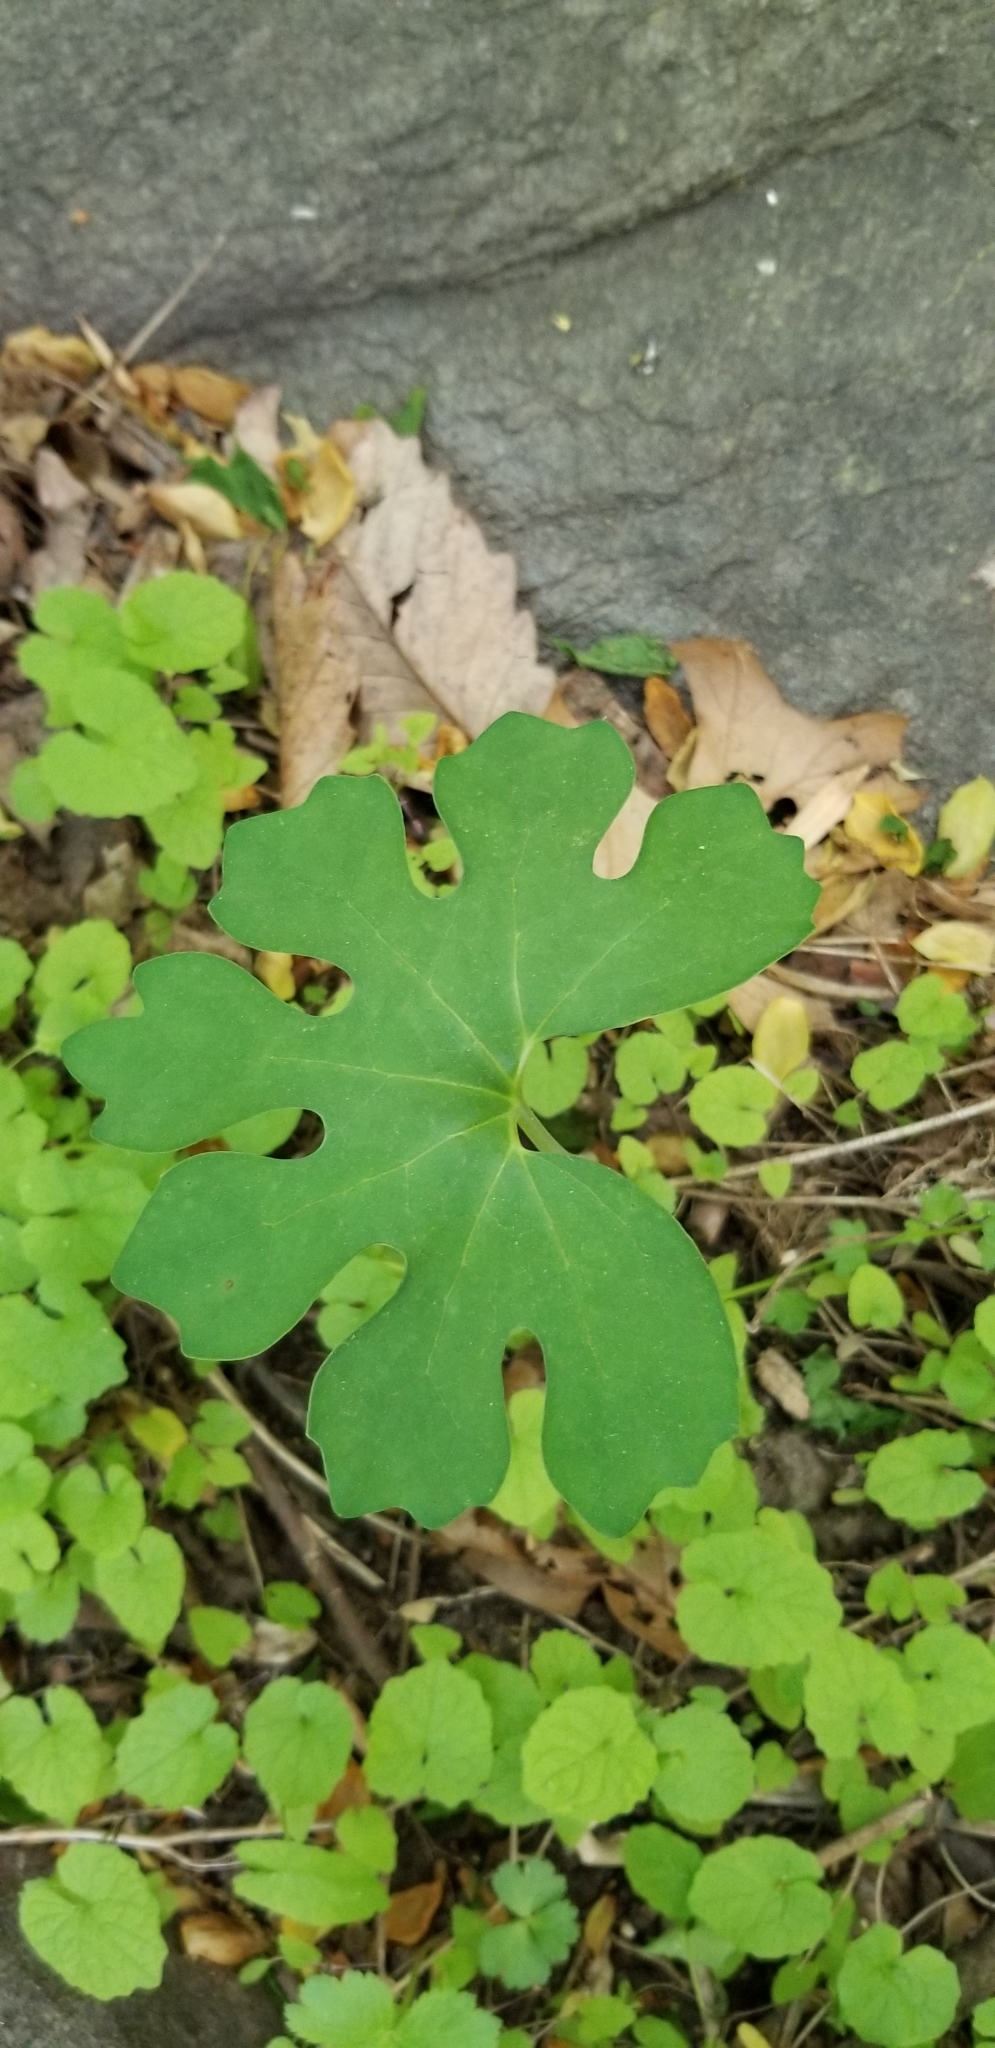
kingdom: Plantae
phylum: Tracheophyta
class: Magnoliopsida
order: Ranunculales
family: Papaveraceae
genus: Sanguinaria
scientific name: Sanguinaria canadensis
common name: Bloodroot
